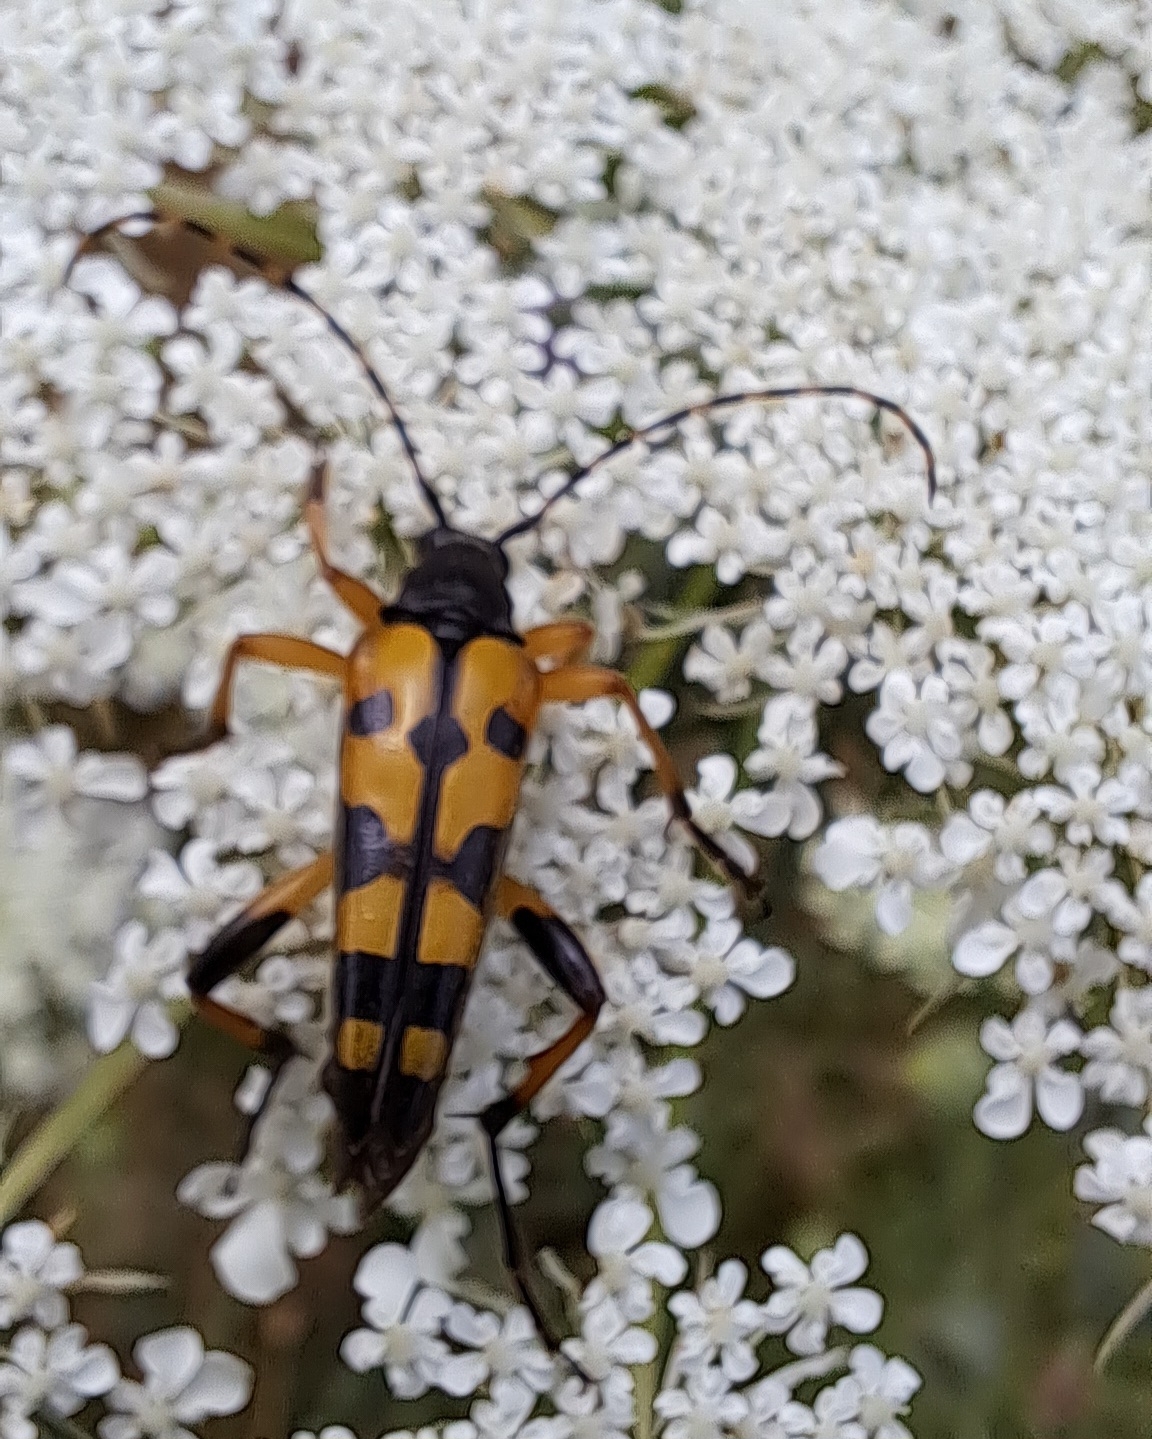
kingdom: Animalia
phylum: Arthropoda
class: Insecta
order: Coleoptera
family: Cerambycidae
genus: Rutpela
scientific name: Rutpela maculata
